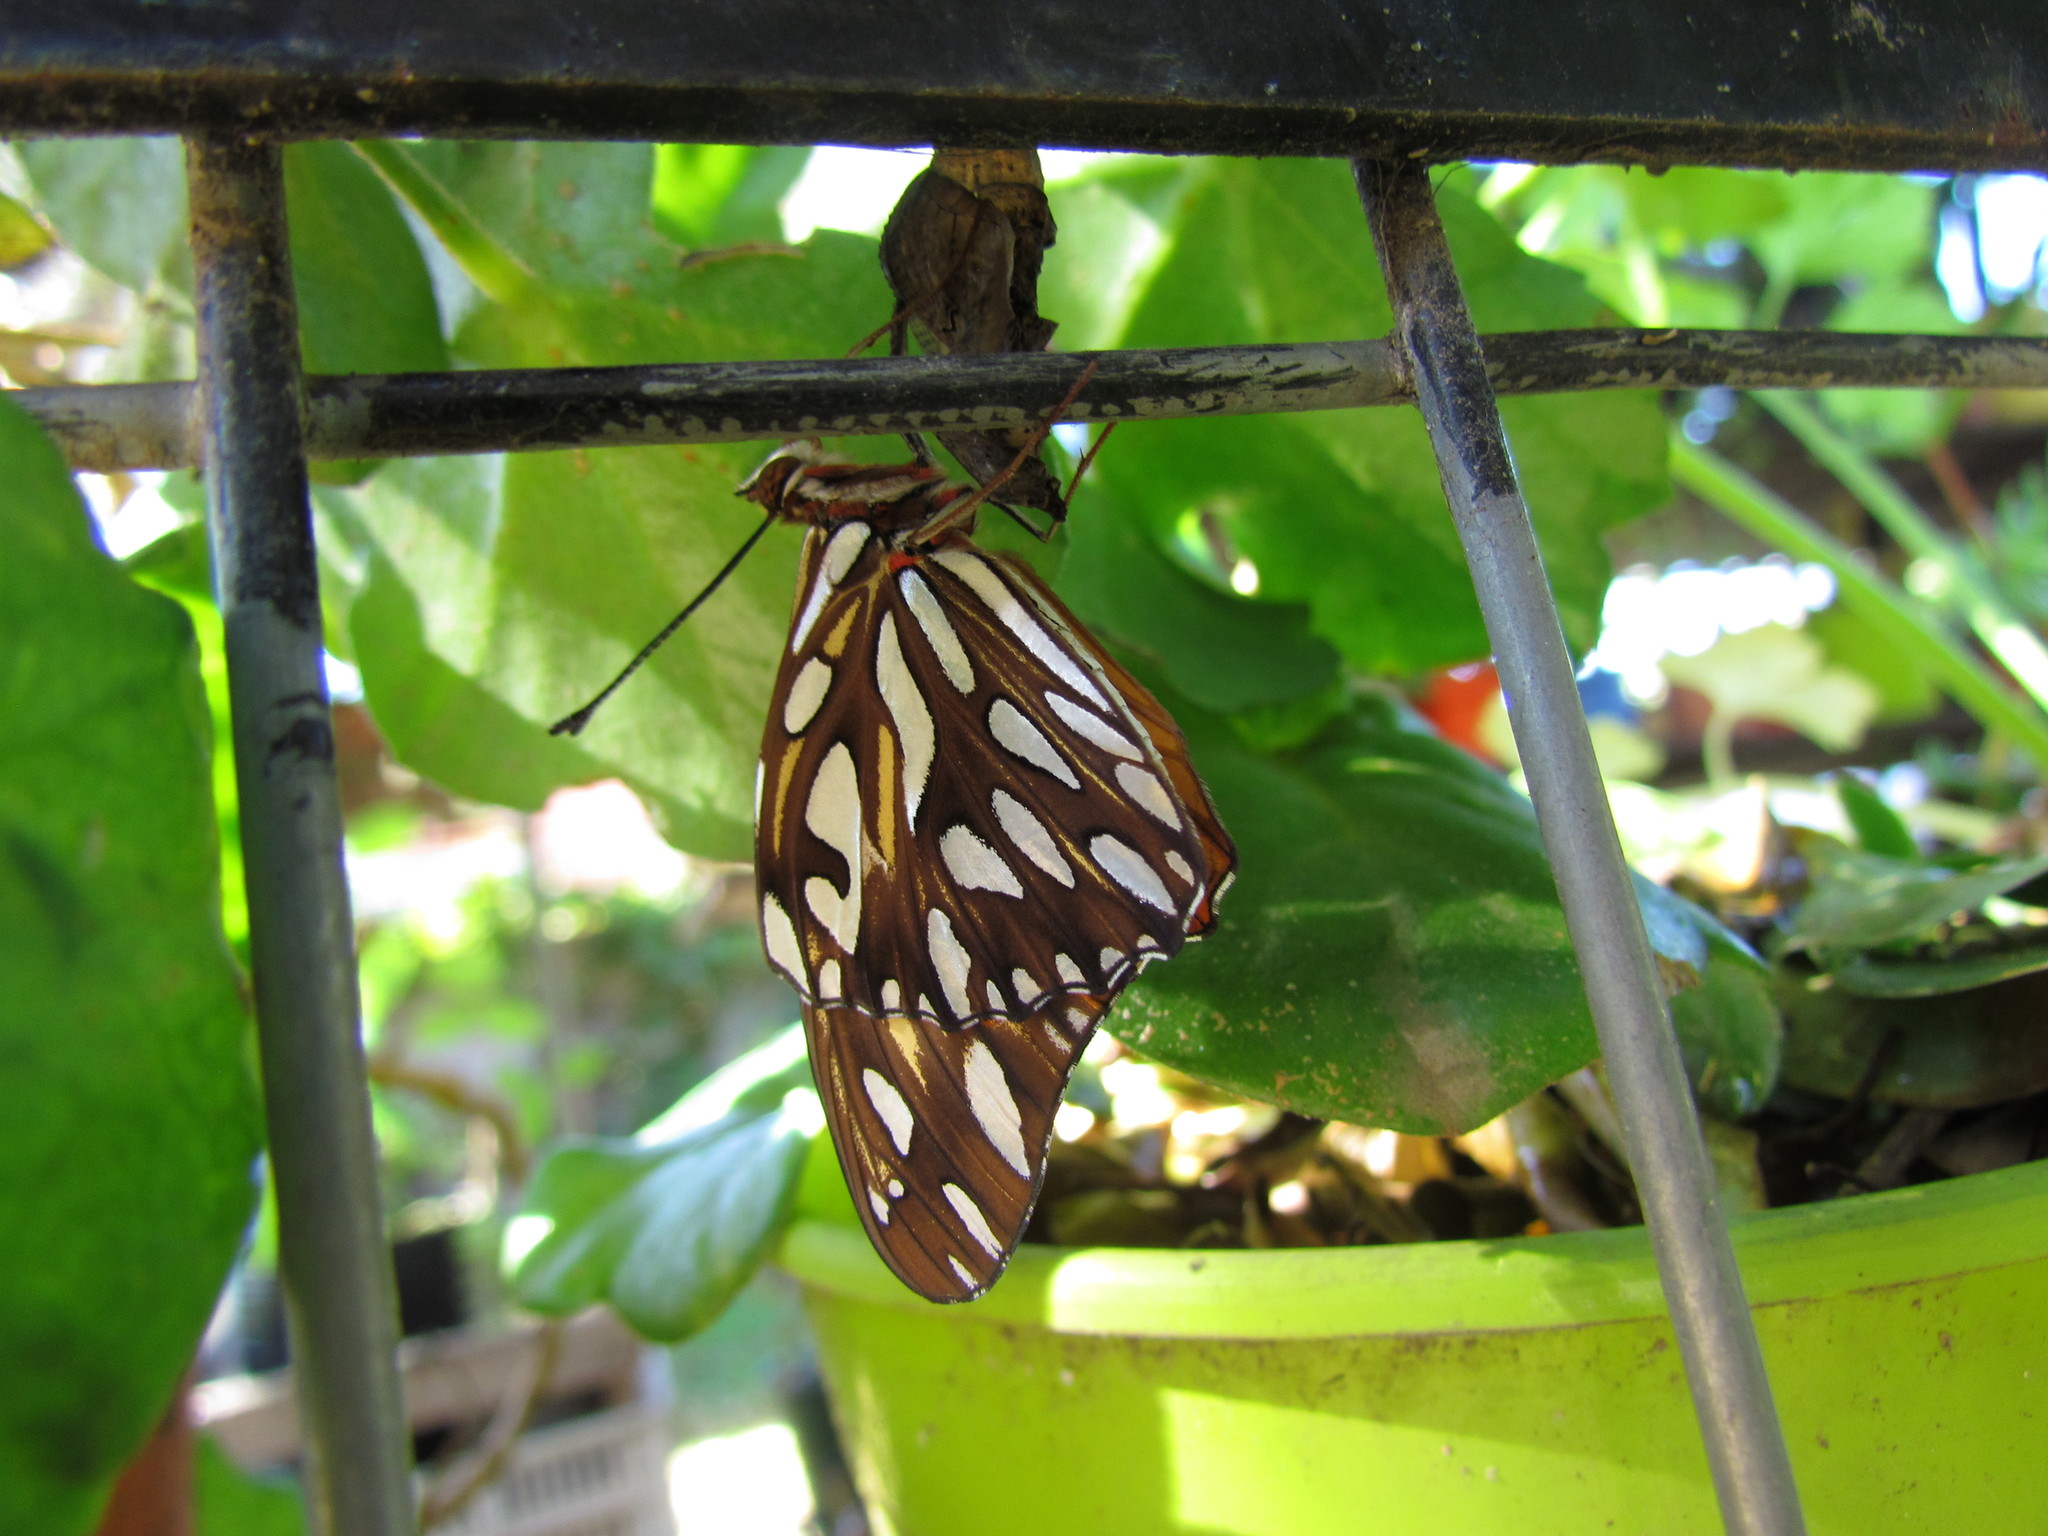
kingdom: Animalia
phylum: Arthropoda
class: Insecta
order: Lepidoptera
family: Nymphalidae
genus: Dione
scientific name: Dione vanillae
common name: Gulf fritillary
